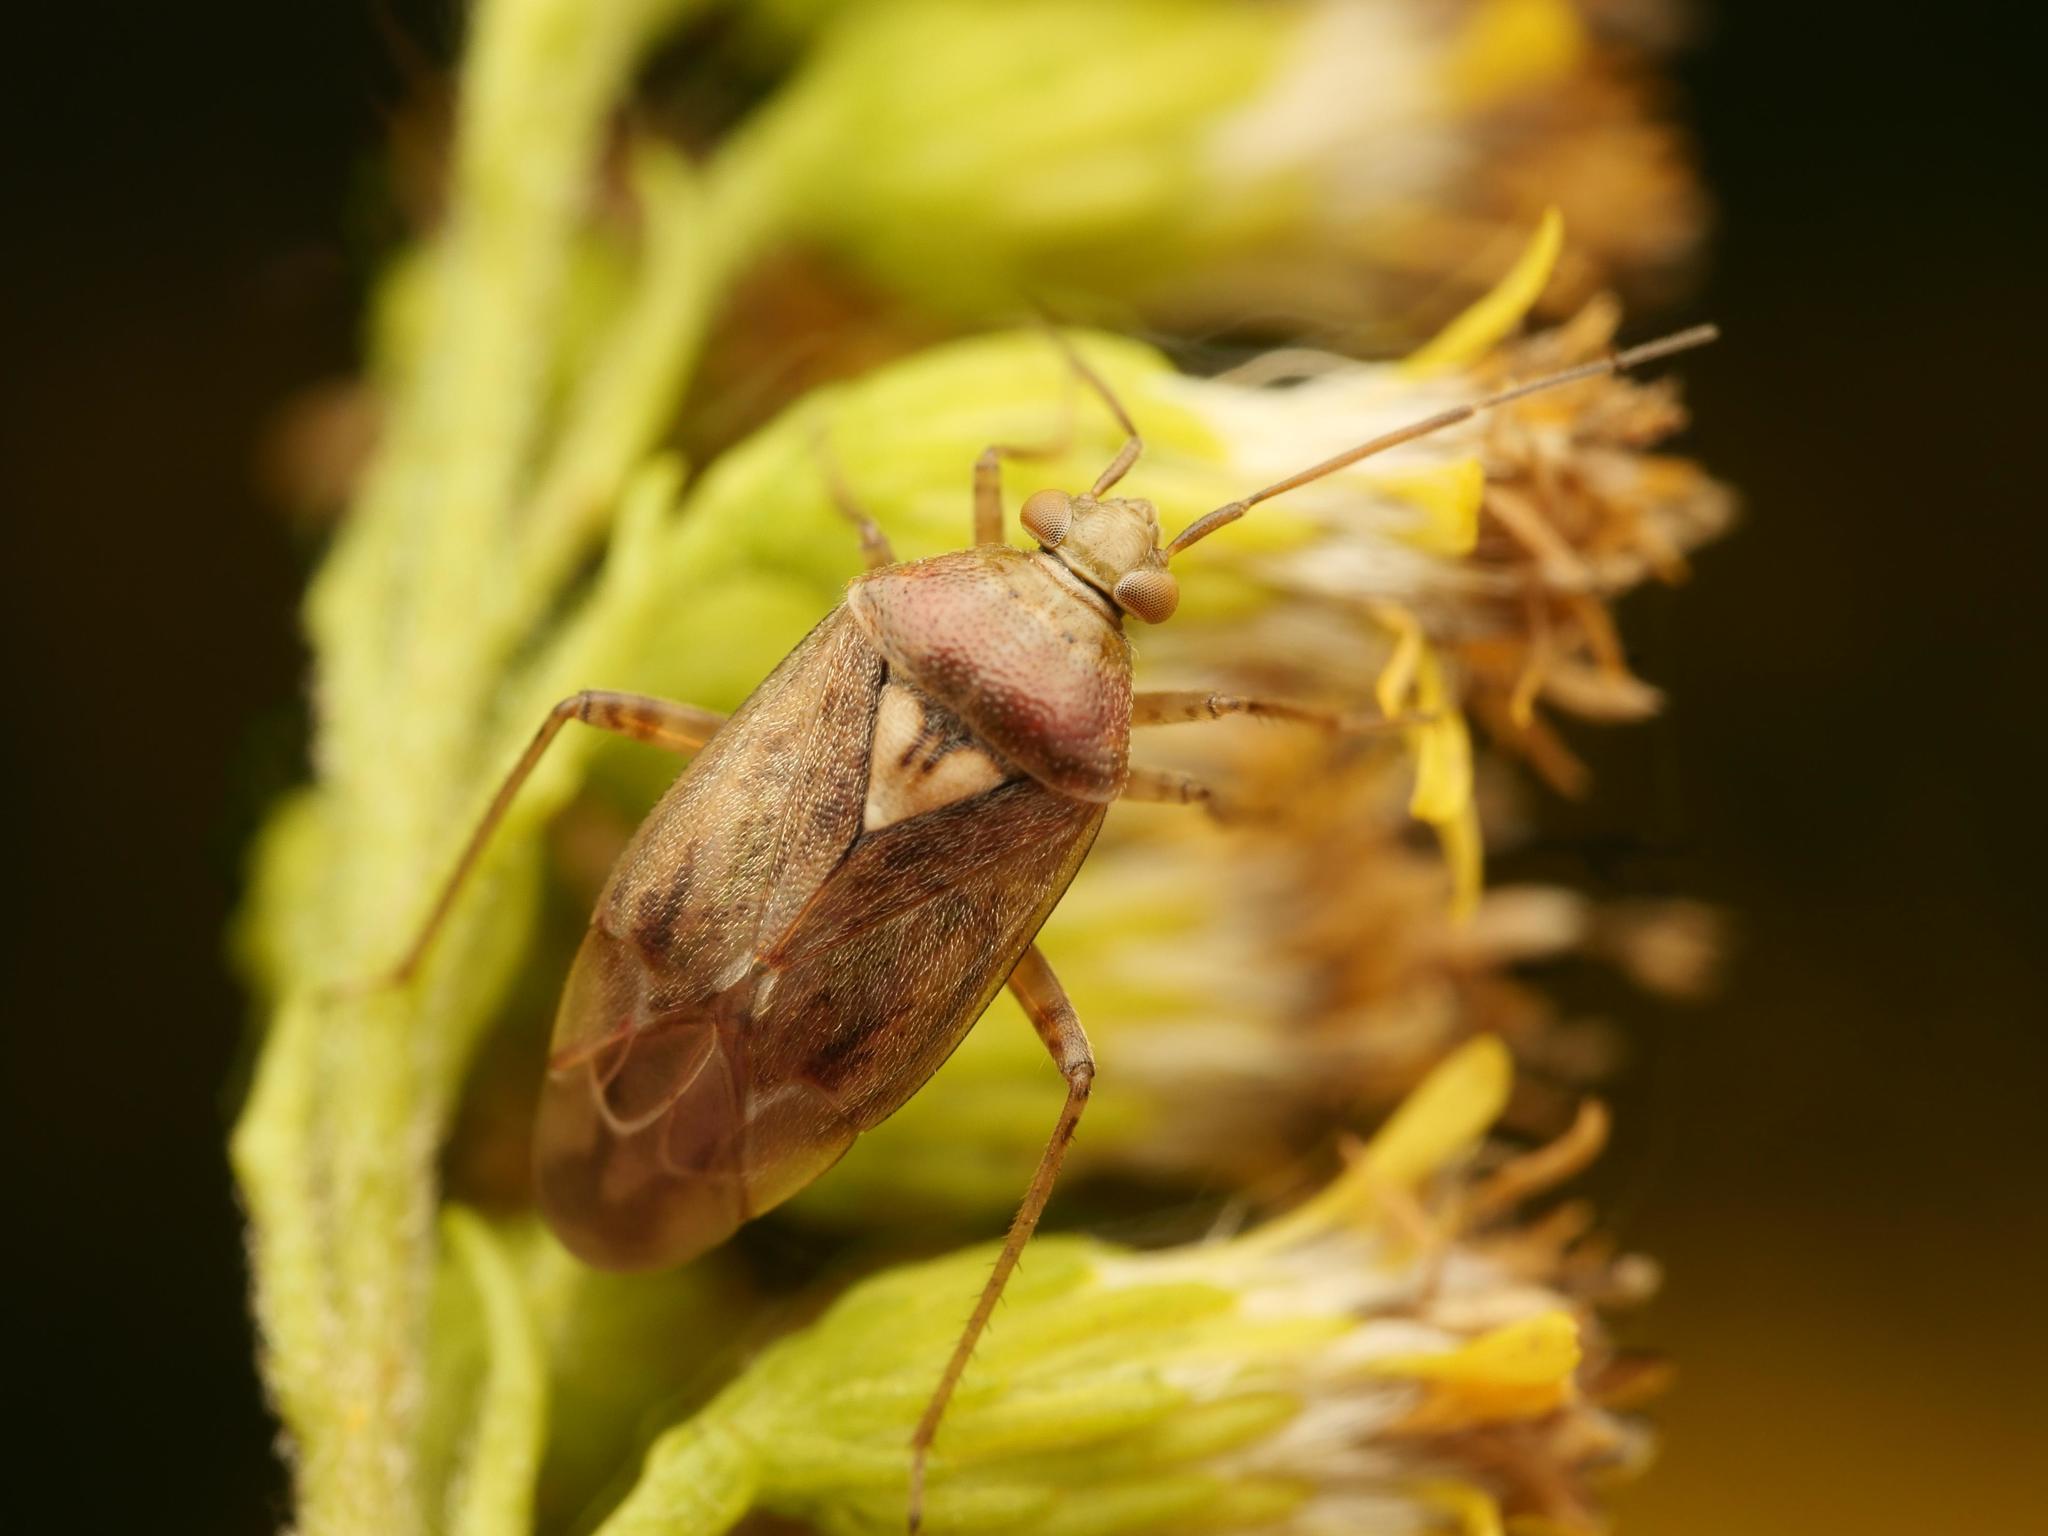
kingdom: Animalia
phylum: Arthropoda
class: Insecta
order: Hemiptera
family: Miridae
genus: Lygus
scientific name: Lygus rugulipennis
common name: European tarnished plant bug
